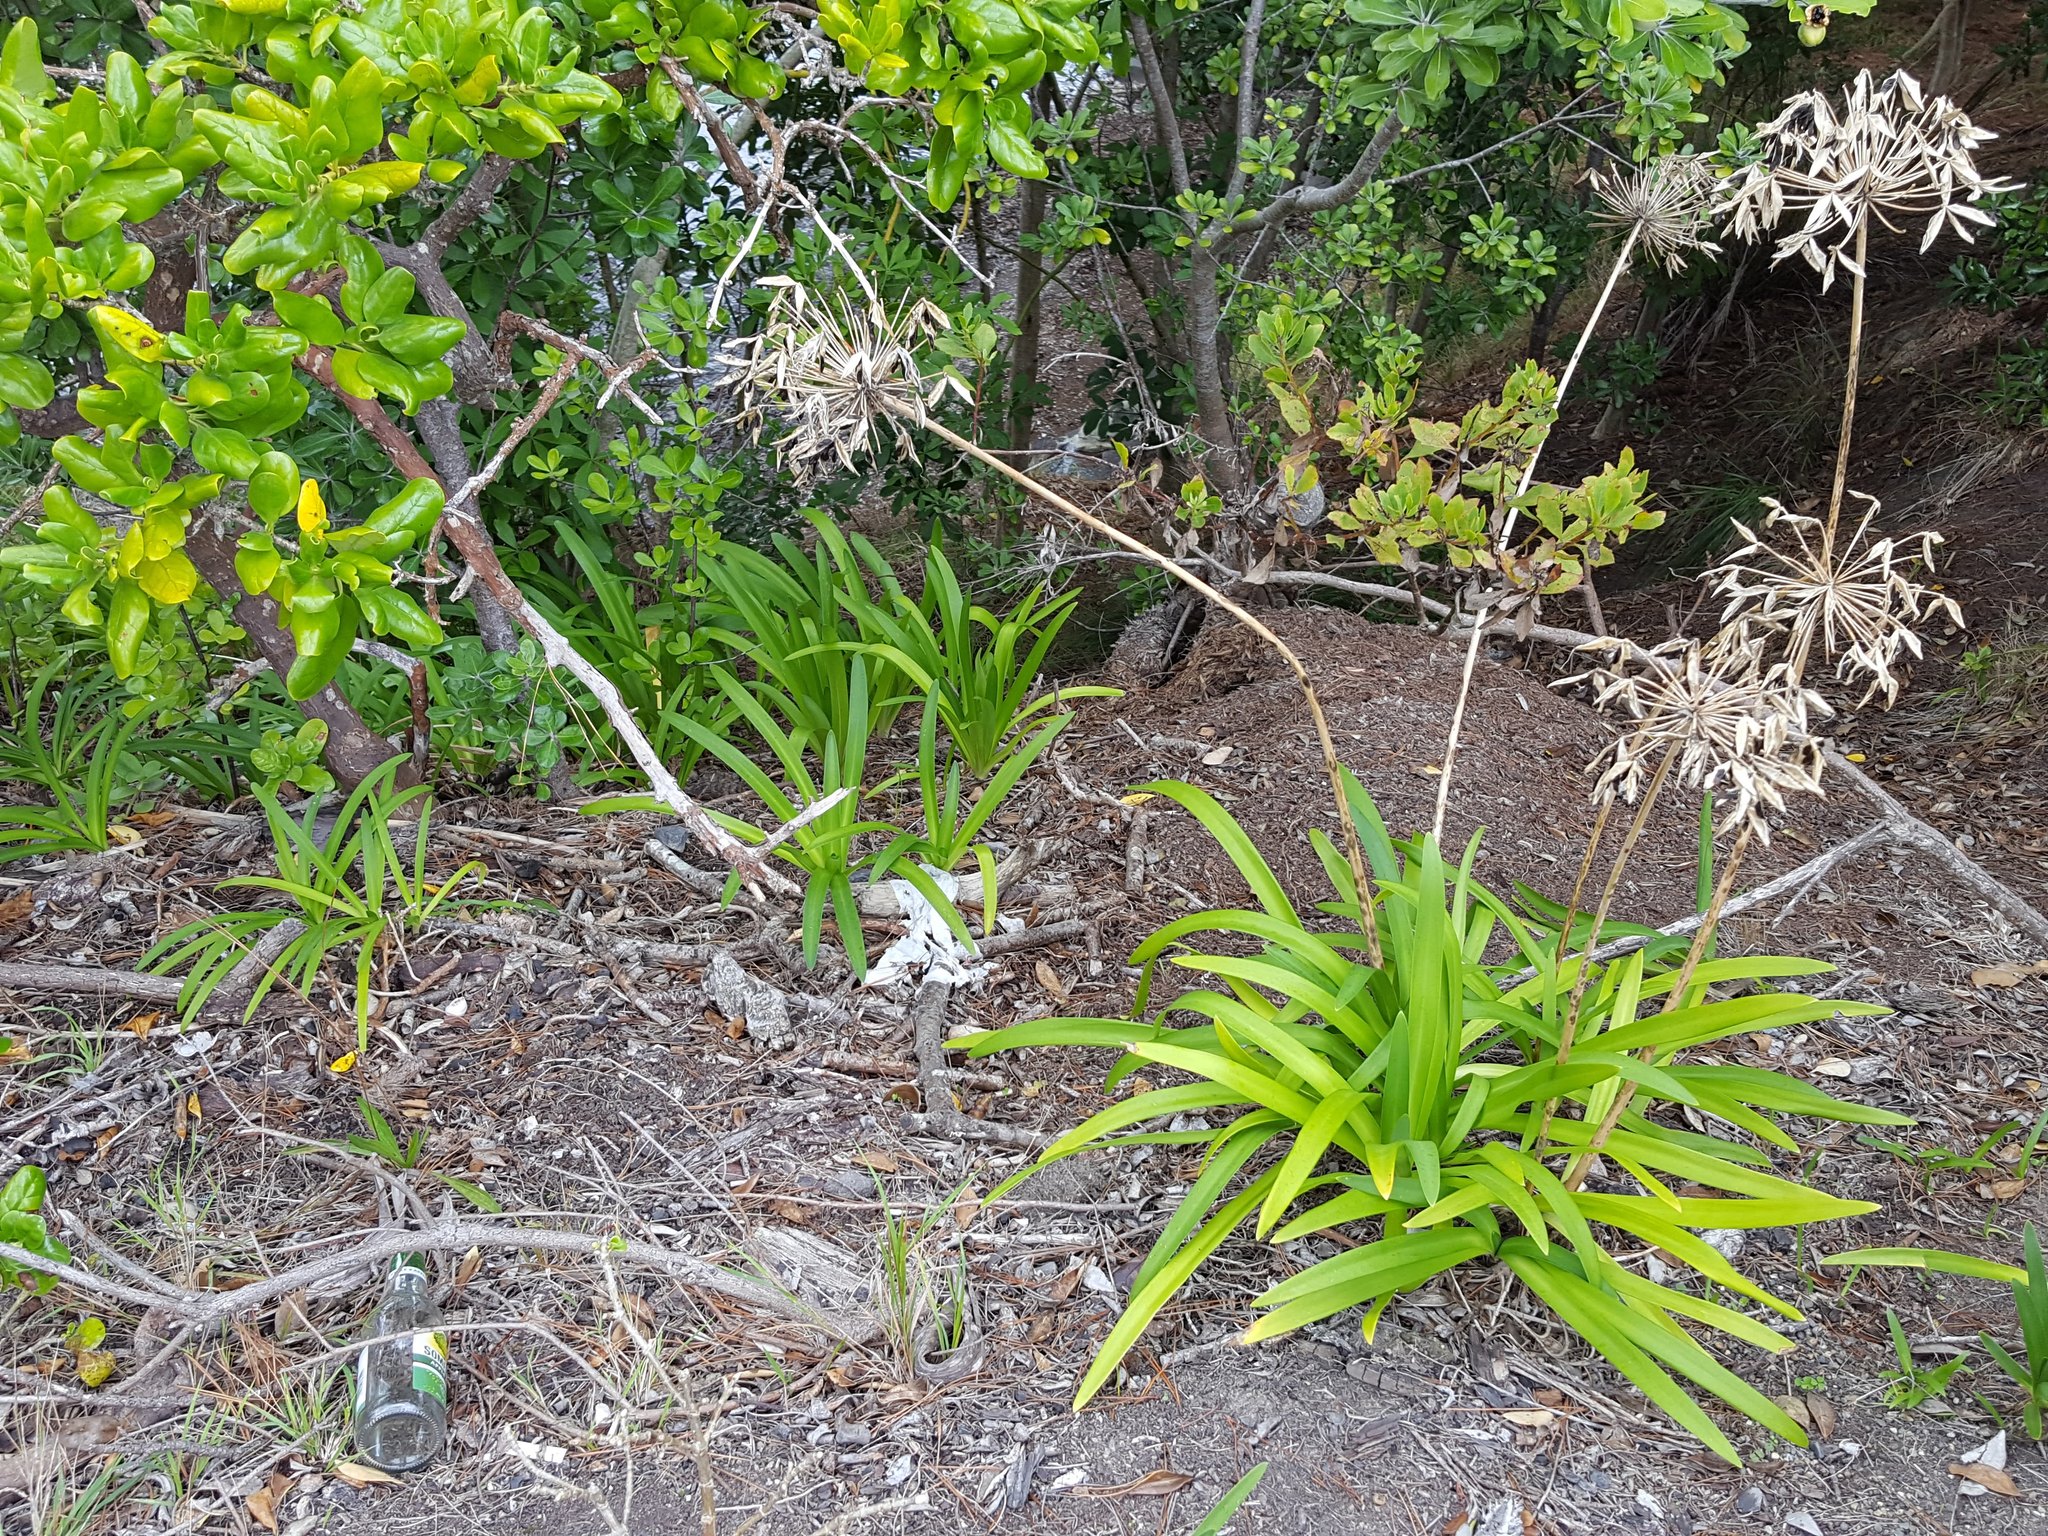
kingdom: Plantae
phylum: Tracheophyta
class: Liliopsida
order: Asparagales
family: Amaryllidaceae
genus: Agapanthus
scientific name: Agapanthus praecox
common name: African-lily
